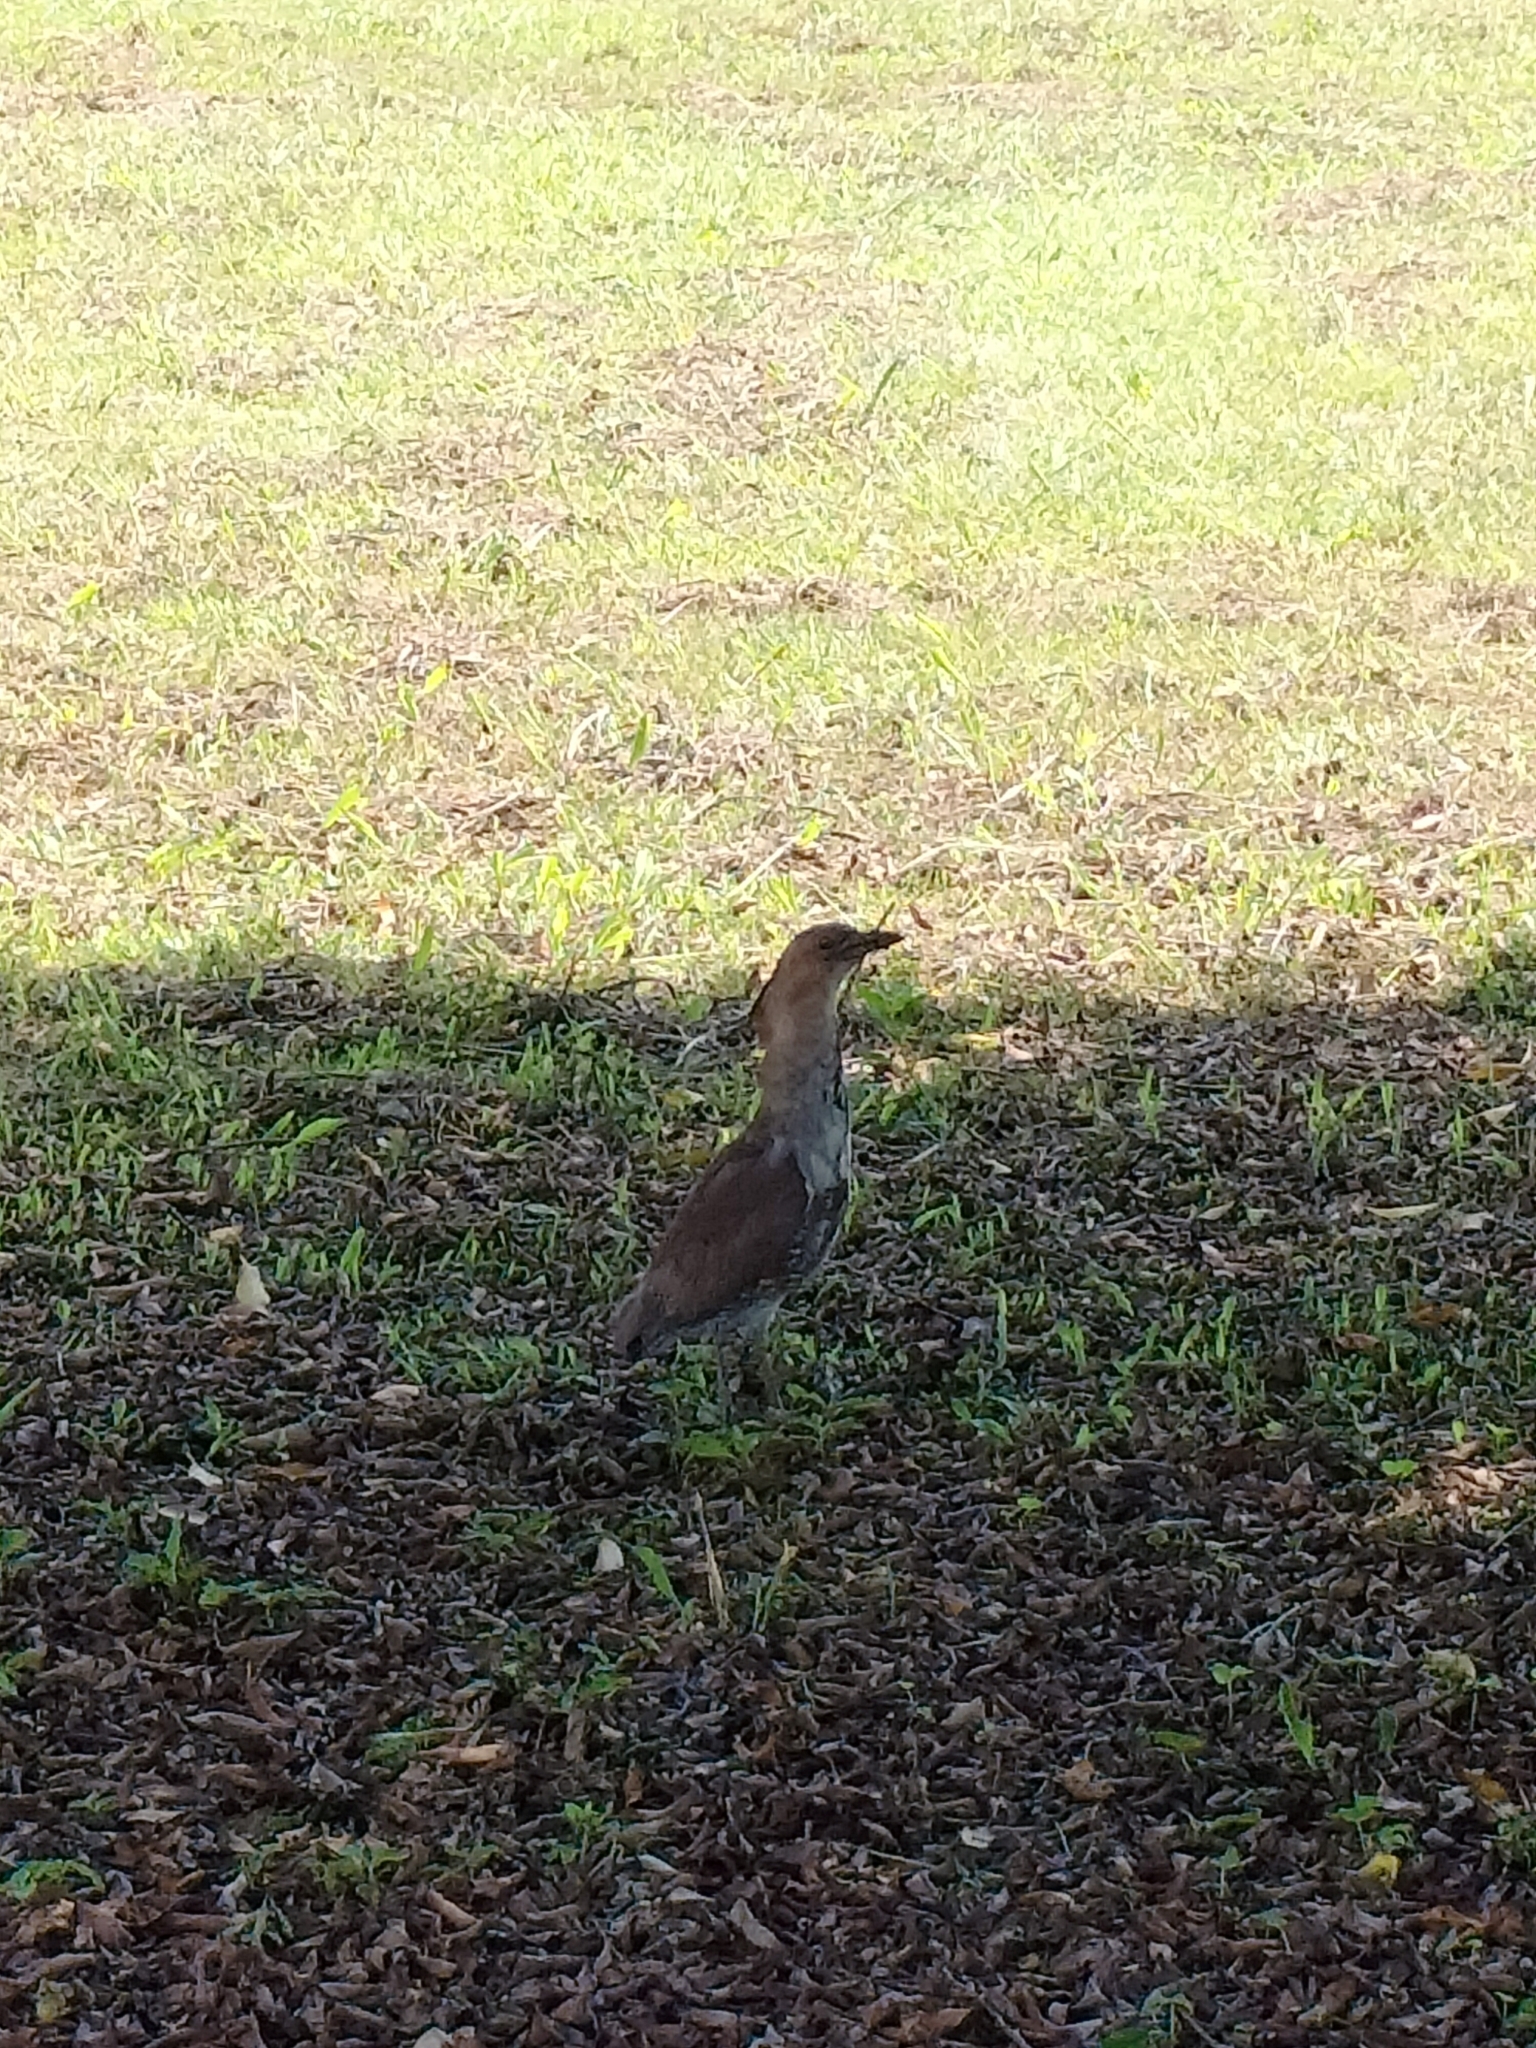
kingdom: Animalia
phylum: Chordata
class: Aves
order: Pelecaniformes
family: Ardeidae
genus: Gorsachius
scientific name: Gorsachius melanolophus
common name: Malayan night heron
